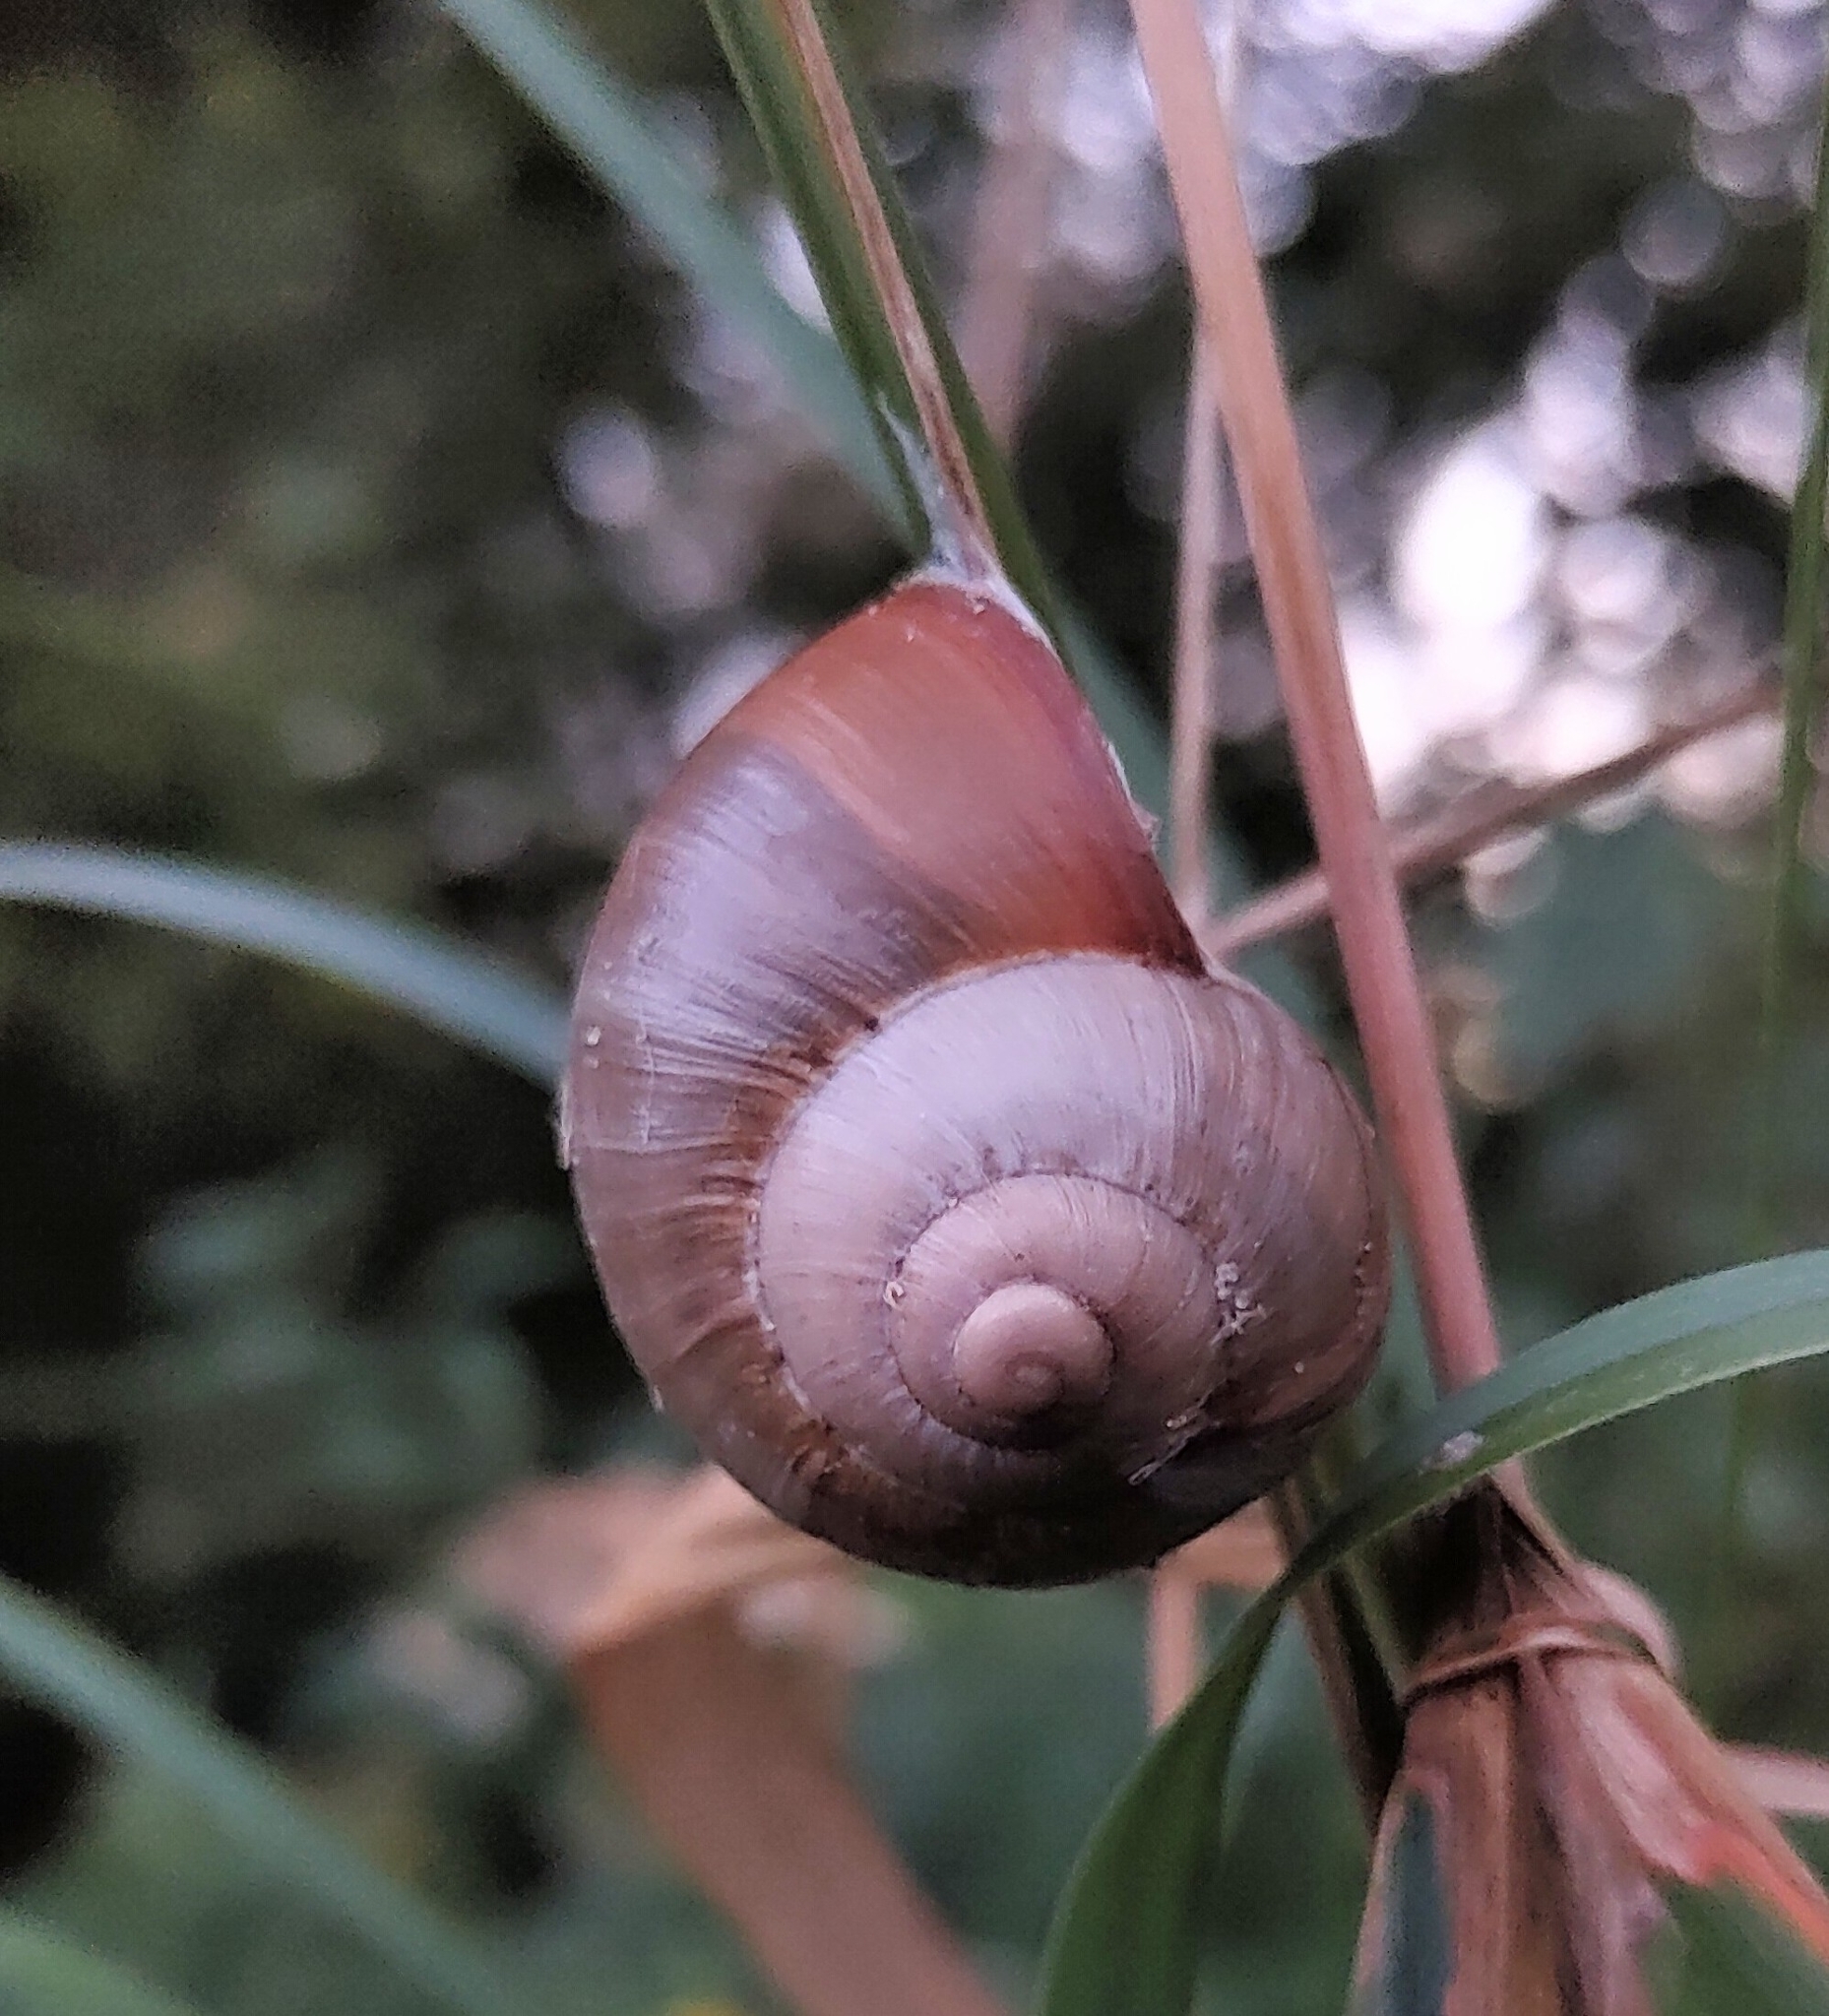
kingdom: Animalia
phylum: Mollusca
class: Gastropoda
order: Stylommatophora
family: Helicidae
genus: Helix
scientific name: Helix lutescens
